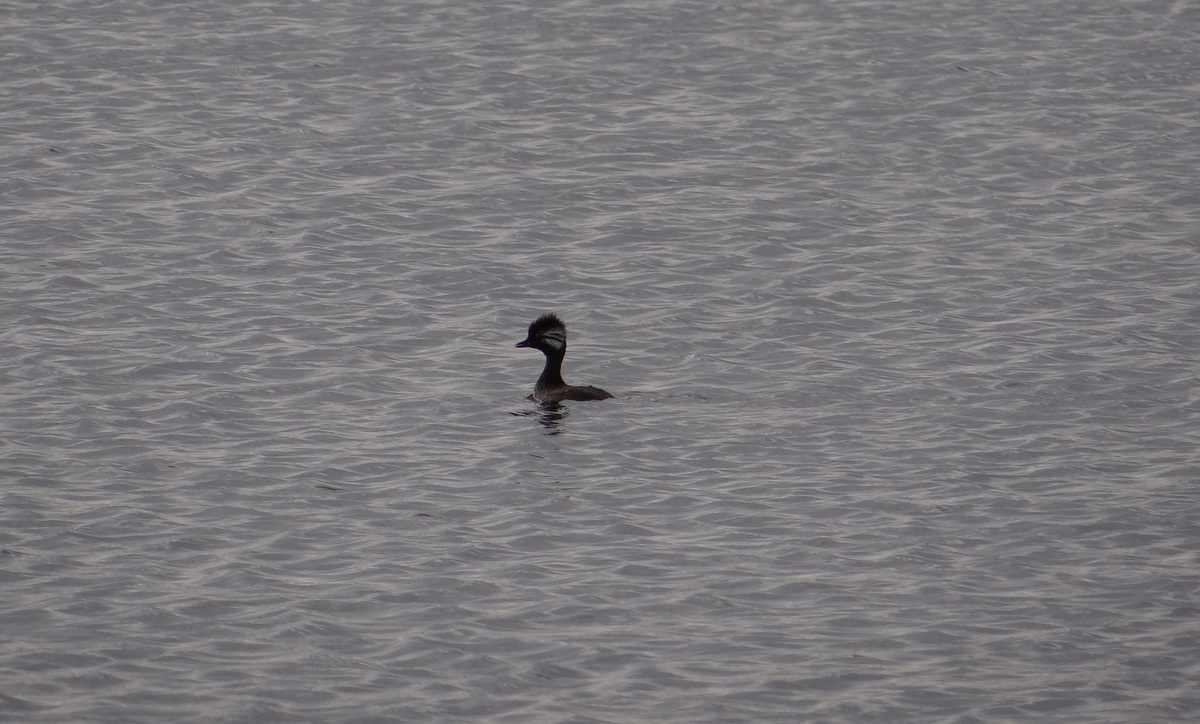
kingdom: Animalia
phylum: Chordata
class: Aves
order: Podicipediformes
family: Podicipedidae
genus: Rollandia
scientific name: Rollandia rolland
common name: White-tufted grebe
